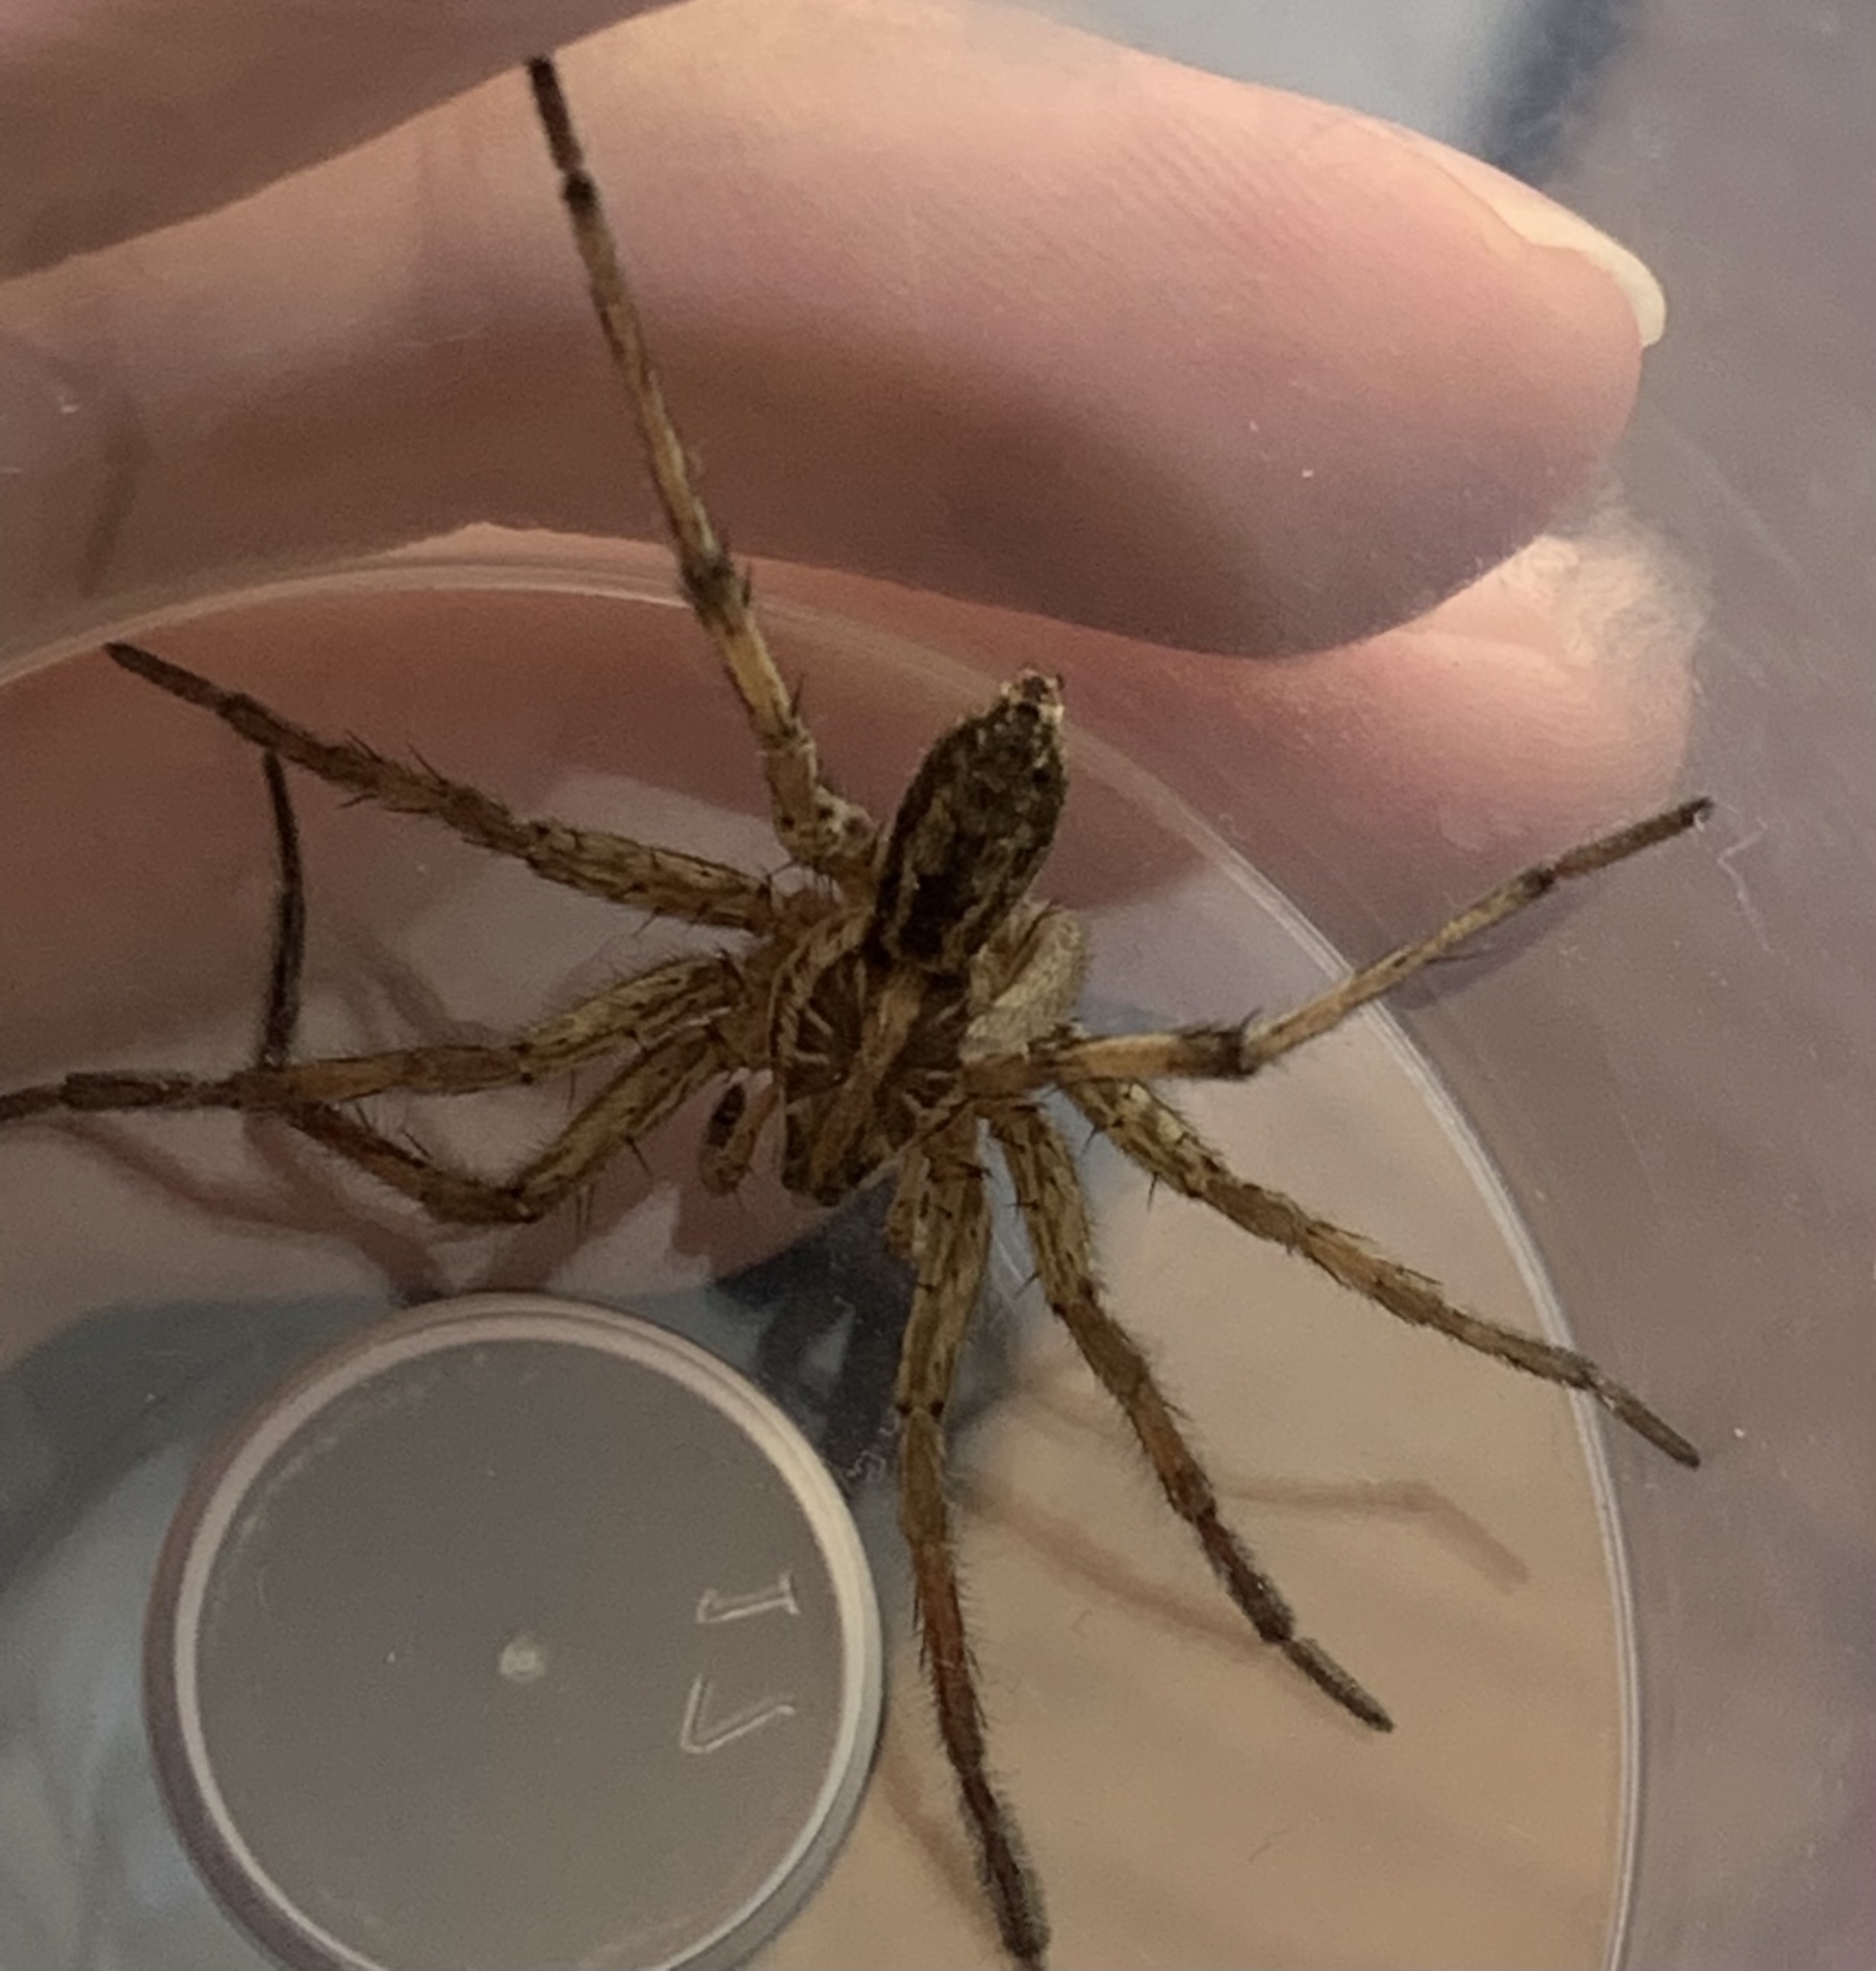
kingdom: Animalia
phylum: Arthropoda
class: Arachnida
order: Araneae
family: Lycosidae
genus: Hogna
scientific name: Hogna radiata
